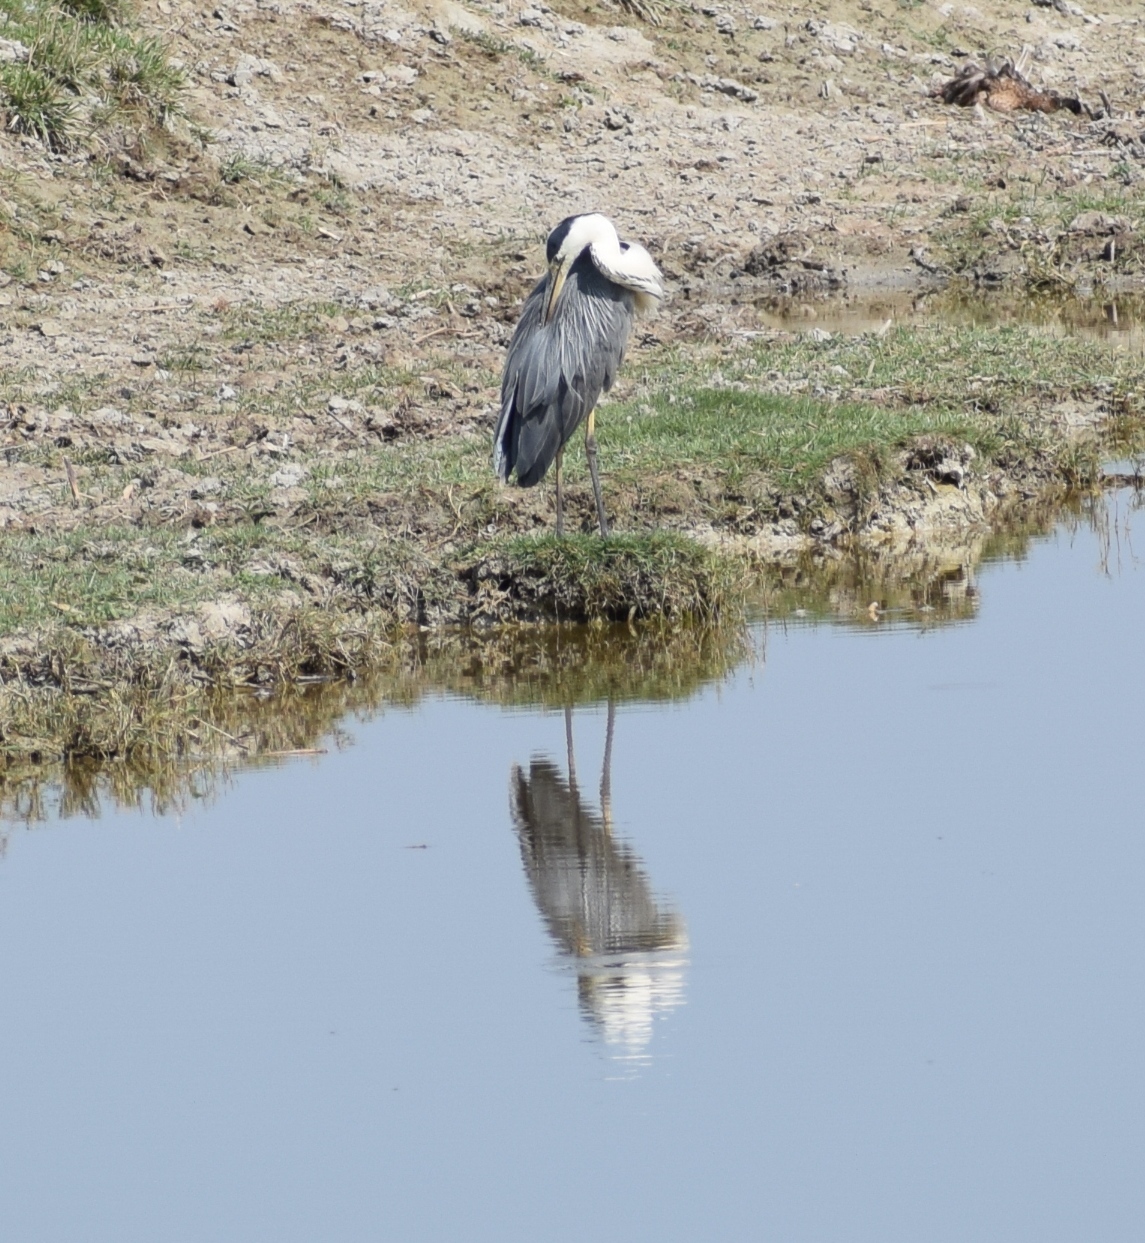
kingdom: Animalia
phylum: Chordata
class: Aves
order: Pelecaniformes
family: Ardeidae
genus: Ardea
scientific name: Ardea cinerea
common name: Grey heron
